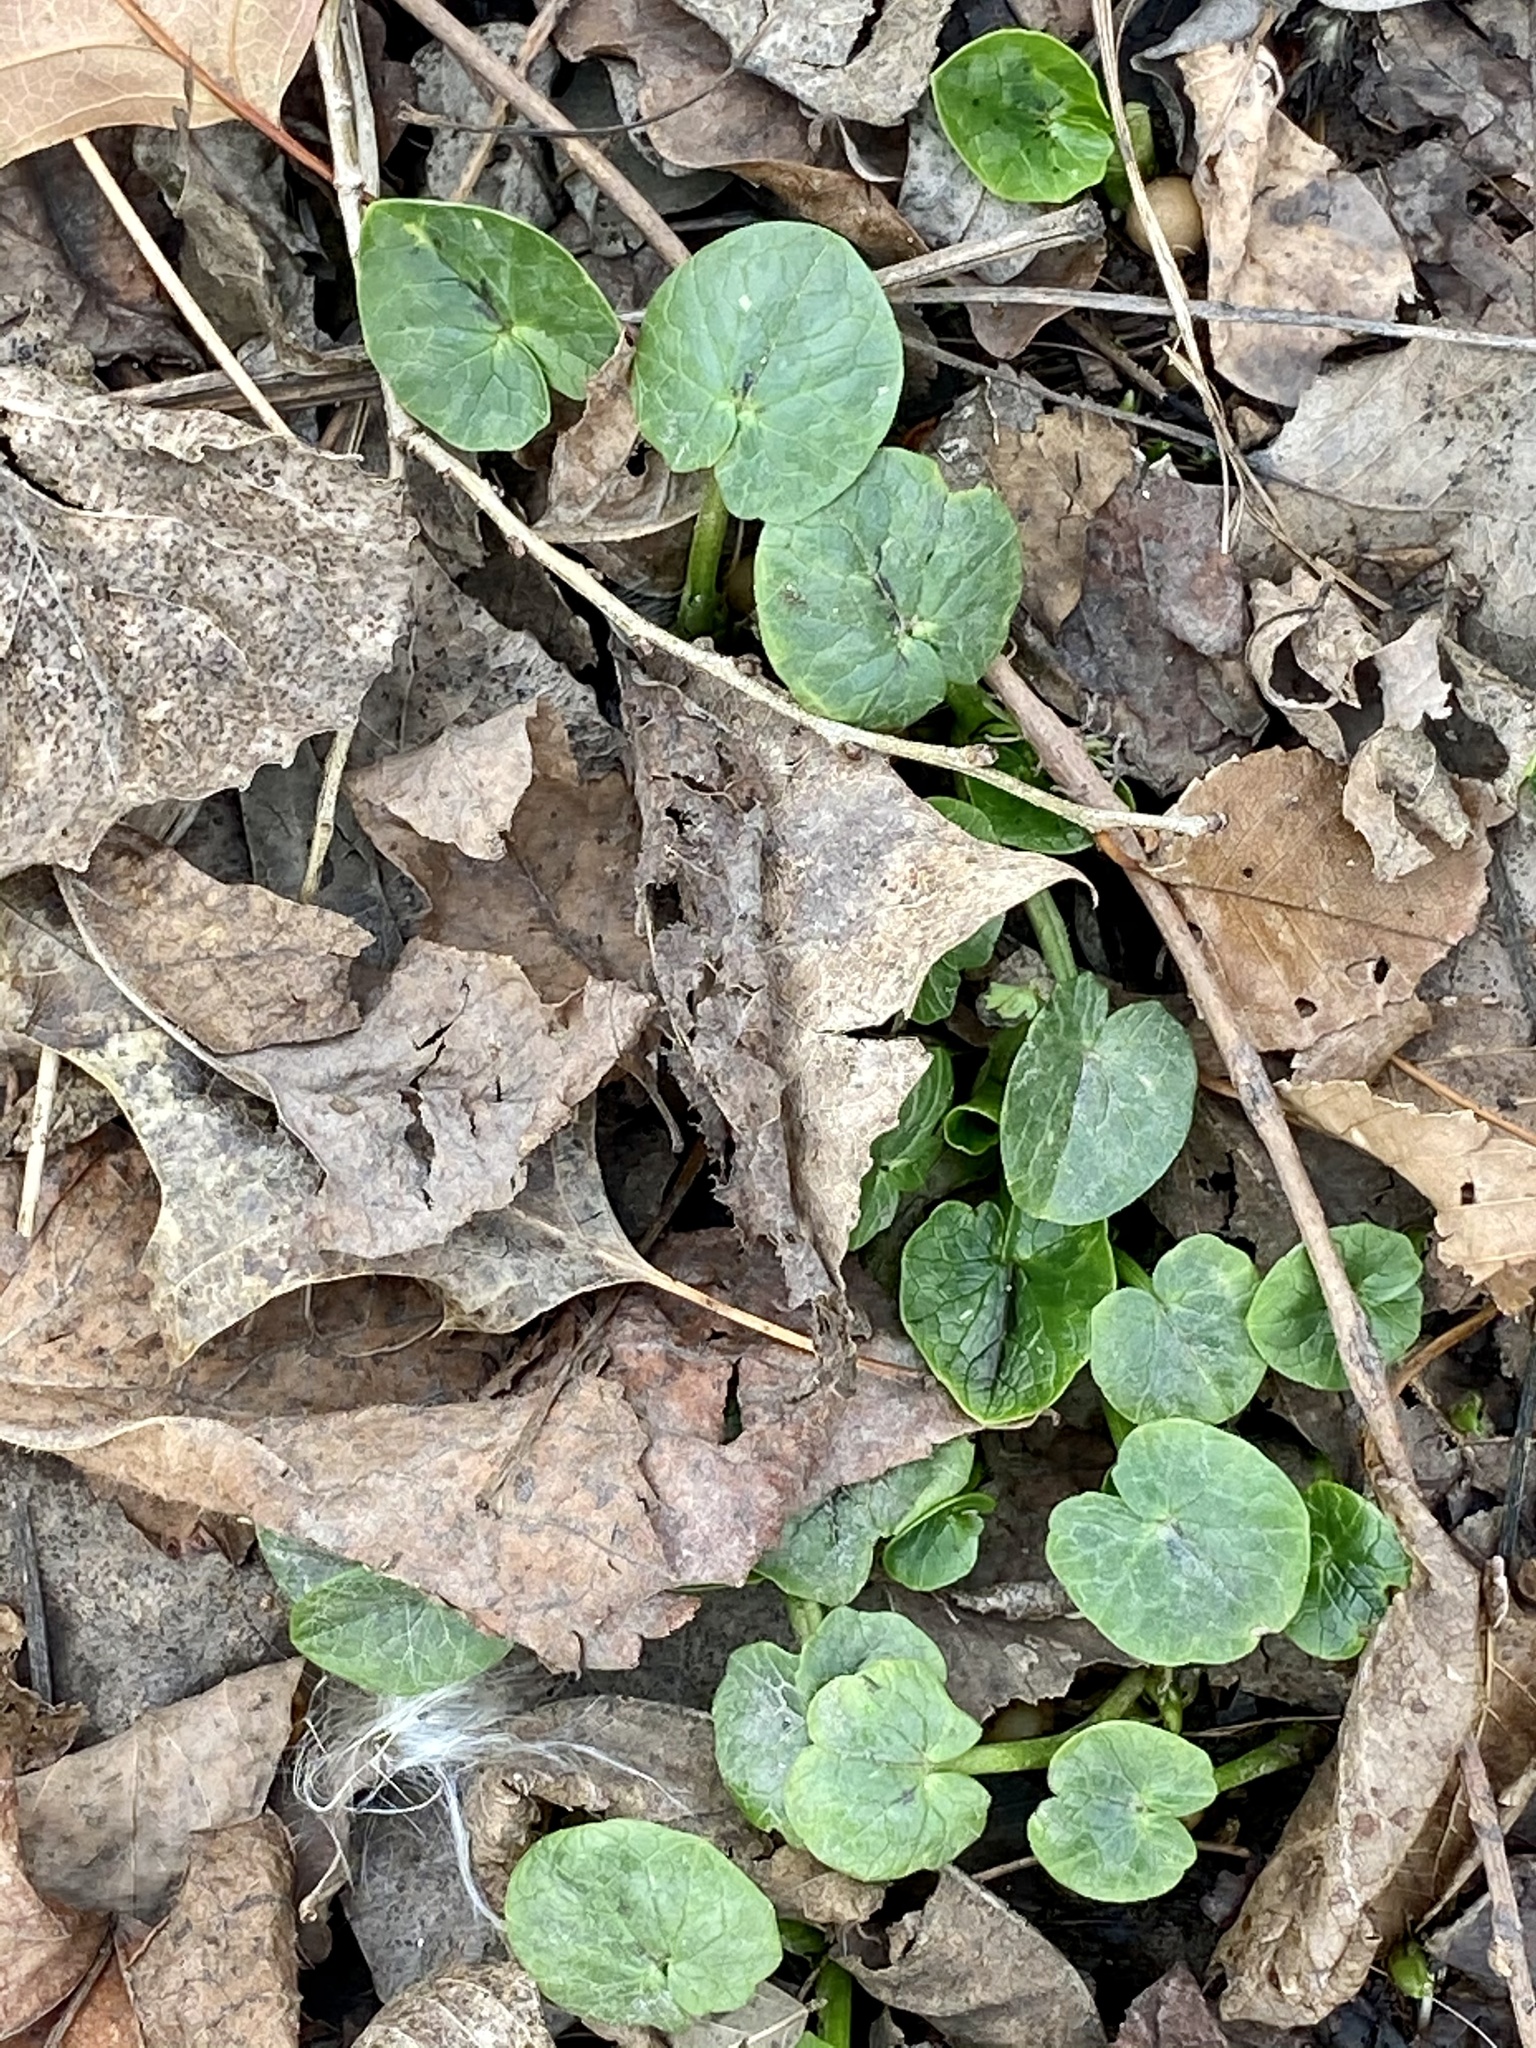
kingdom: Plantae
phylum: Tracheophyta
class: Magnoliopsida
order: Ranunculales
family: Ranunculaceae
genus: Ficaria
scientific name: Ficaria verna
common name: Lesser celandine
